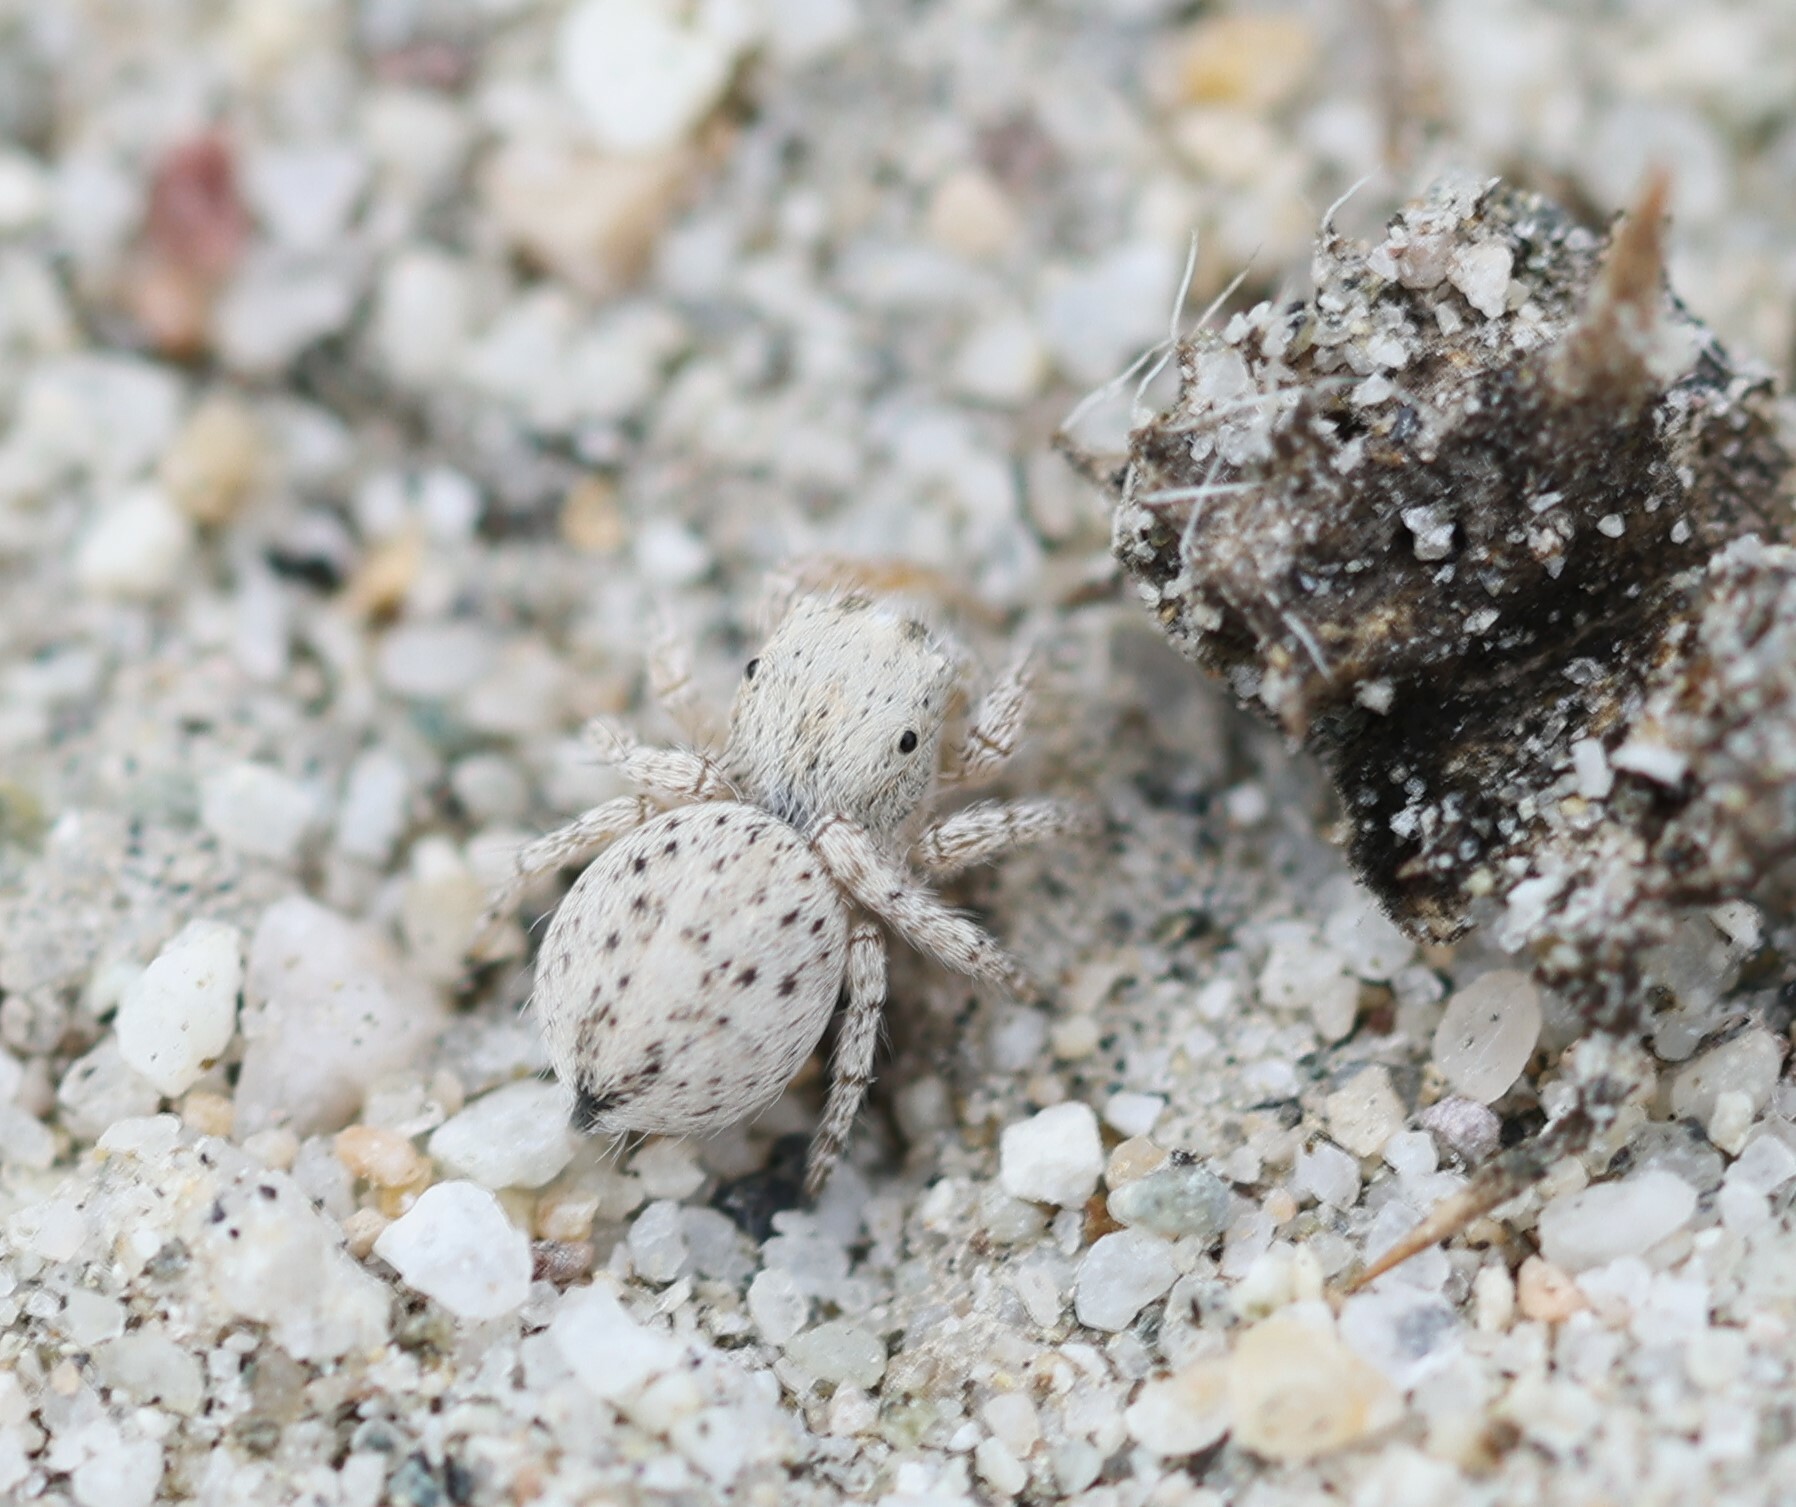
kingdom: Animalia
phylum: Arthropoda
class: Arachnida
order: Araneae
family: Salticidae
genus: Habronattus
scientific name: Habronattus signatus
